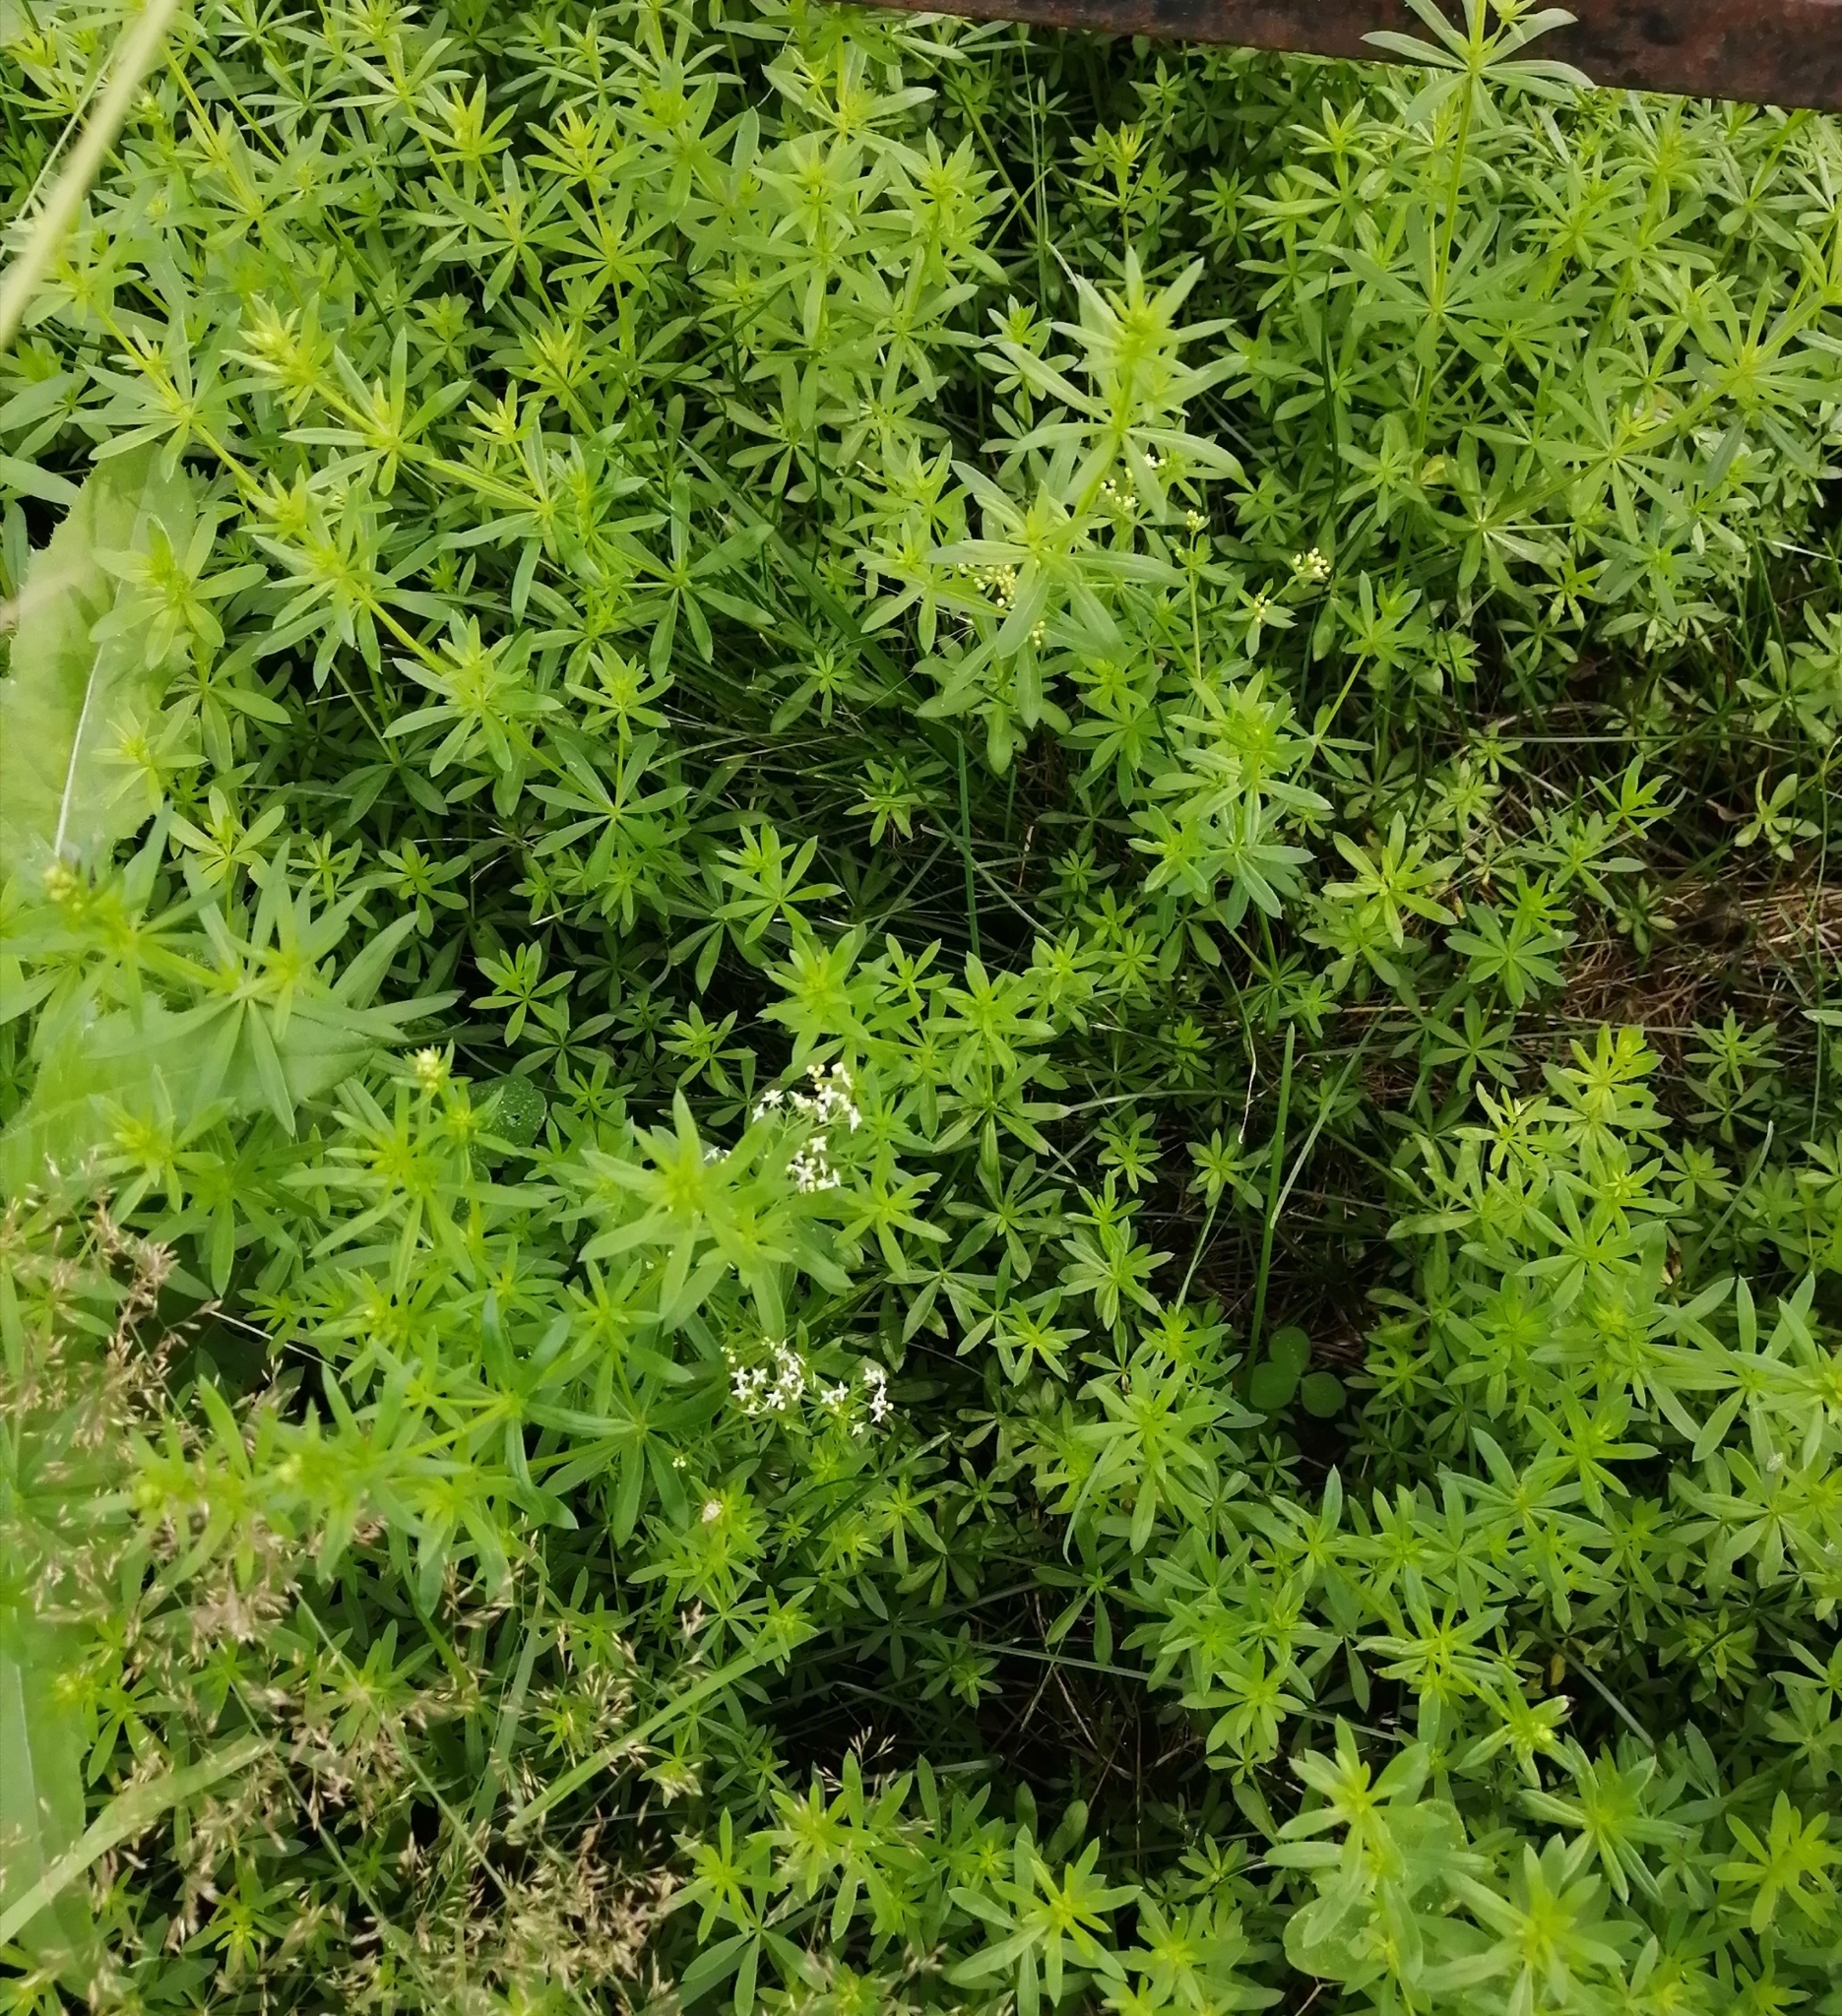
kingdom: Plantae
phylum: Tracheophyta
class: Magnoliopsida
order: Gentianales
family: Rubiaceae
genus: Galium
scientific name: Galium mollugo
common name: Hedge bedstraw
